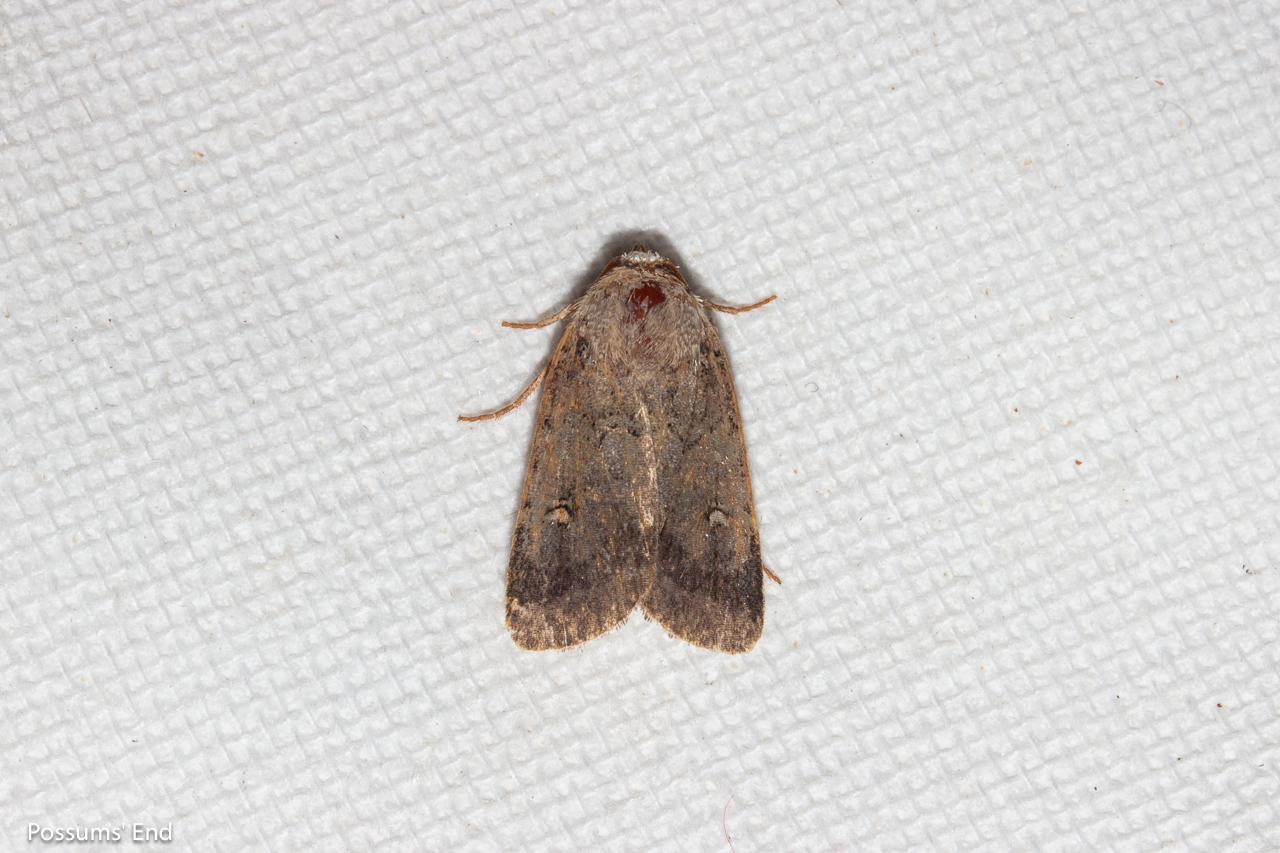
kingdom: Animalia
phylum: Arthropoda
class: Insecta
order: Lepidoptera
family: Noctuidae
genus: Proteuxoa
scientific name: Proteuxoa tetronycha
